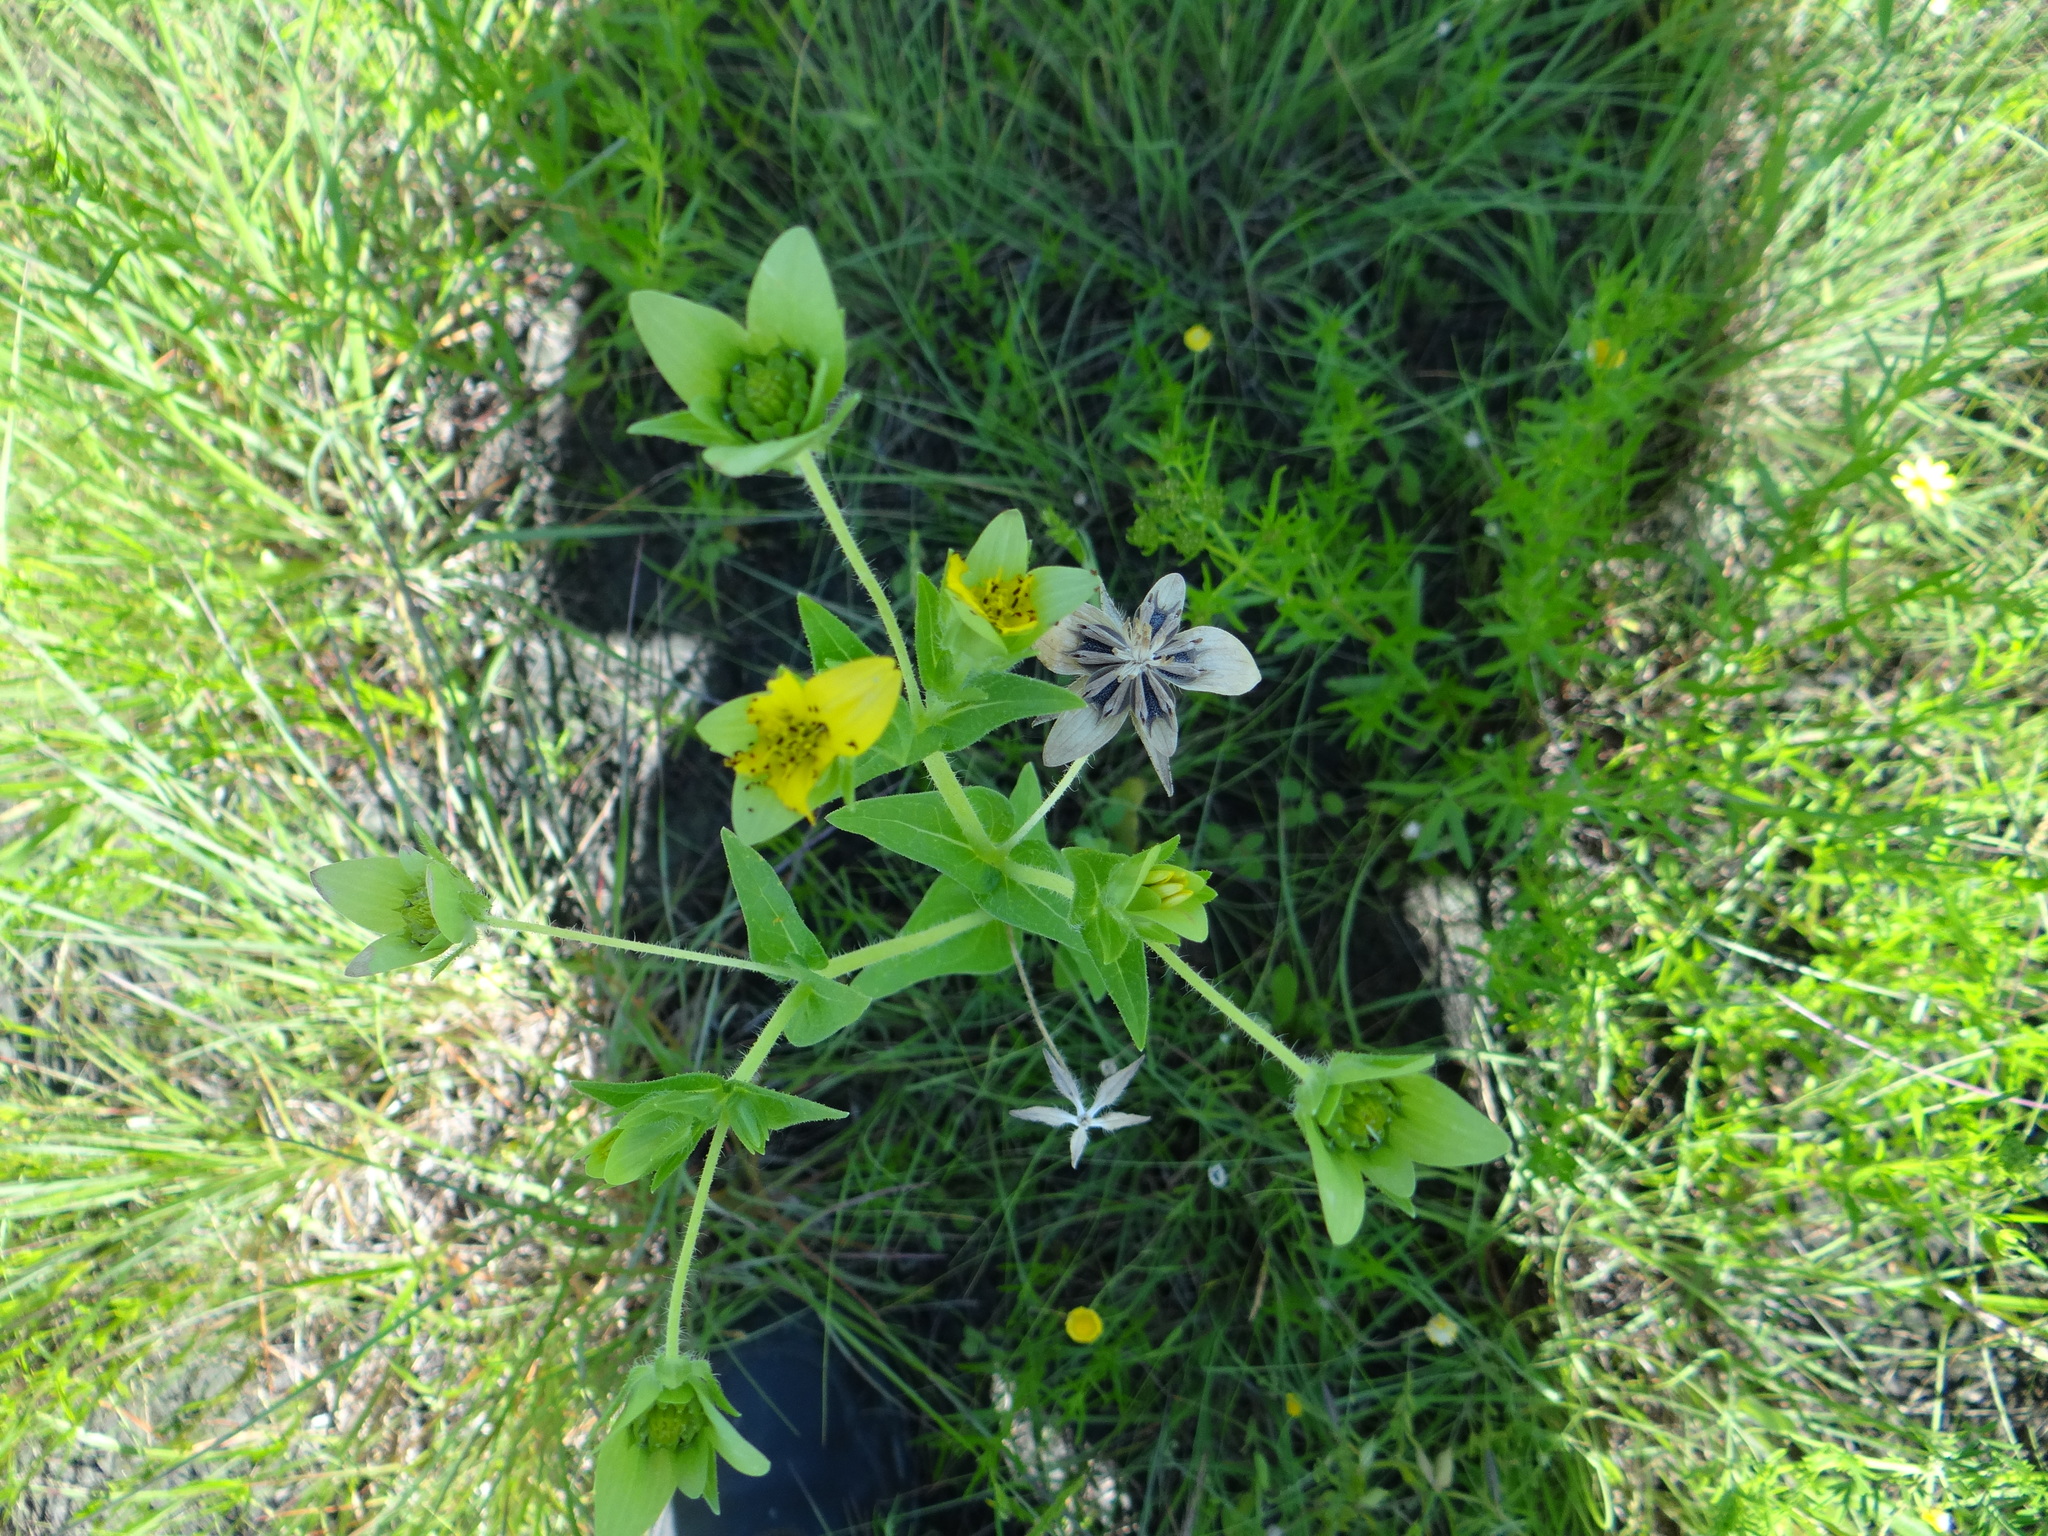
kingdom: Plantae
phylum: Tracheophyta
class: Magnoliopsida
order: Asterales
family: Asteraceae
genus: Lindheimera
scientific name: Lindheimera texana
